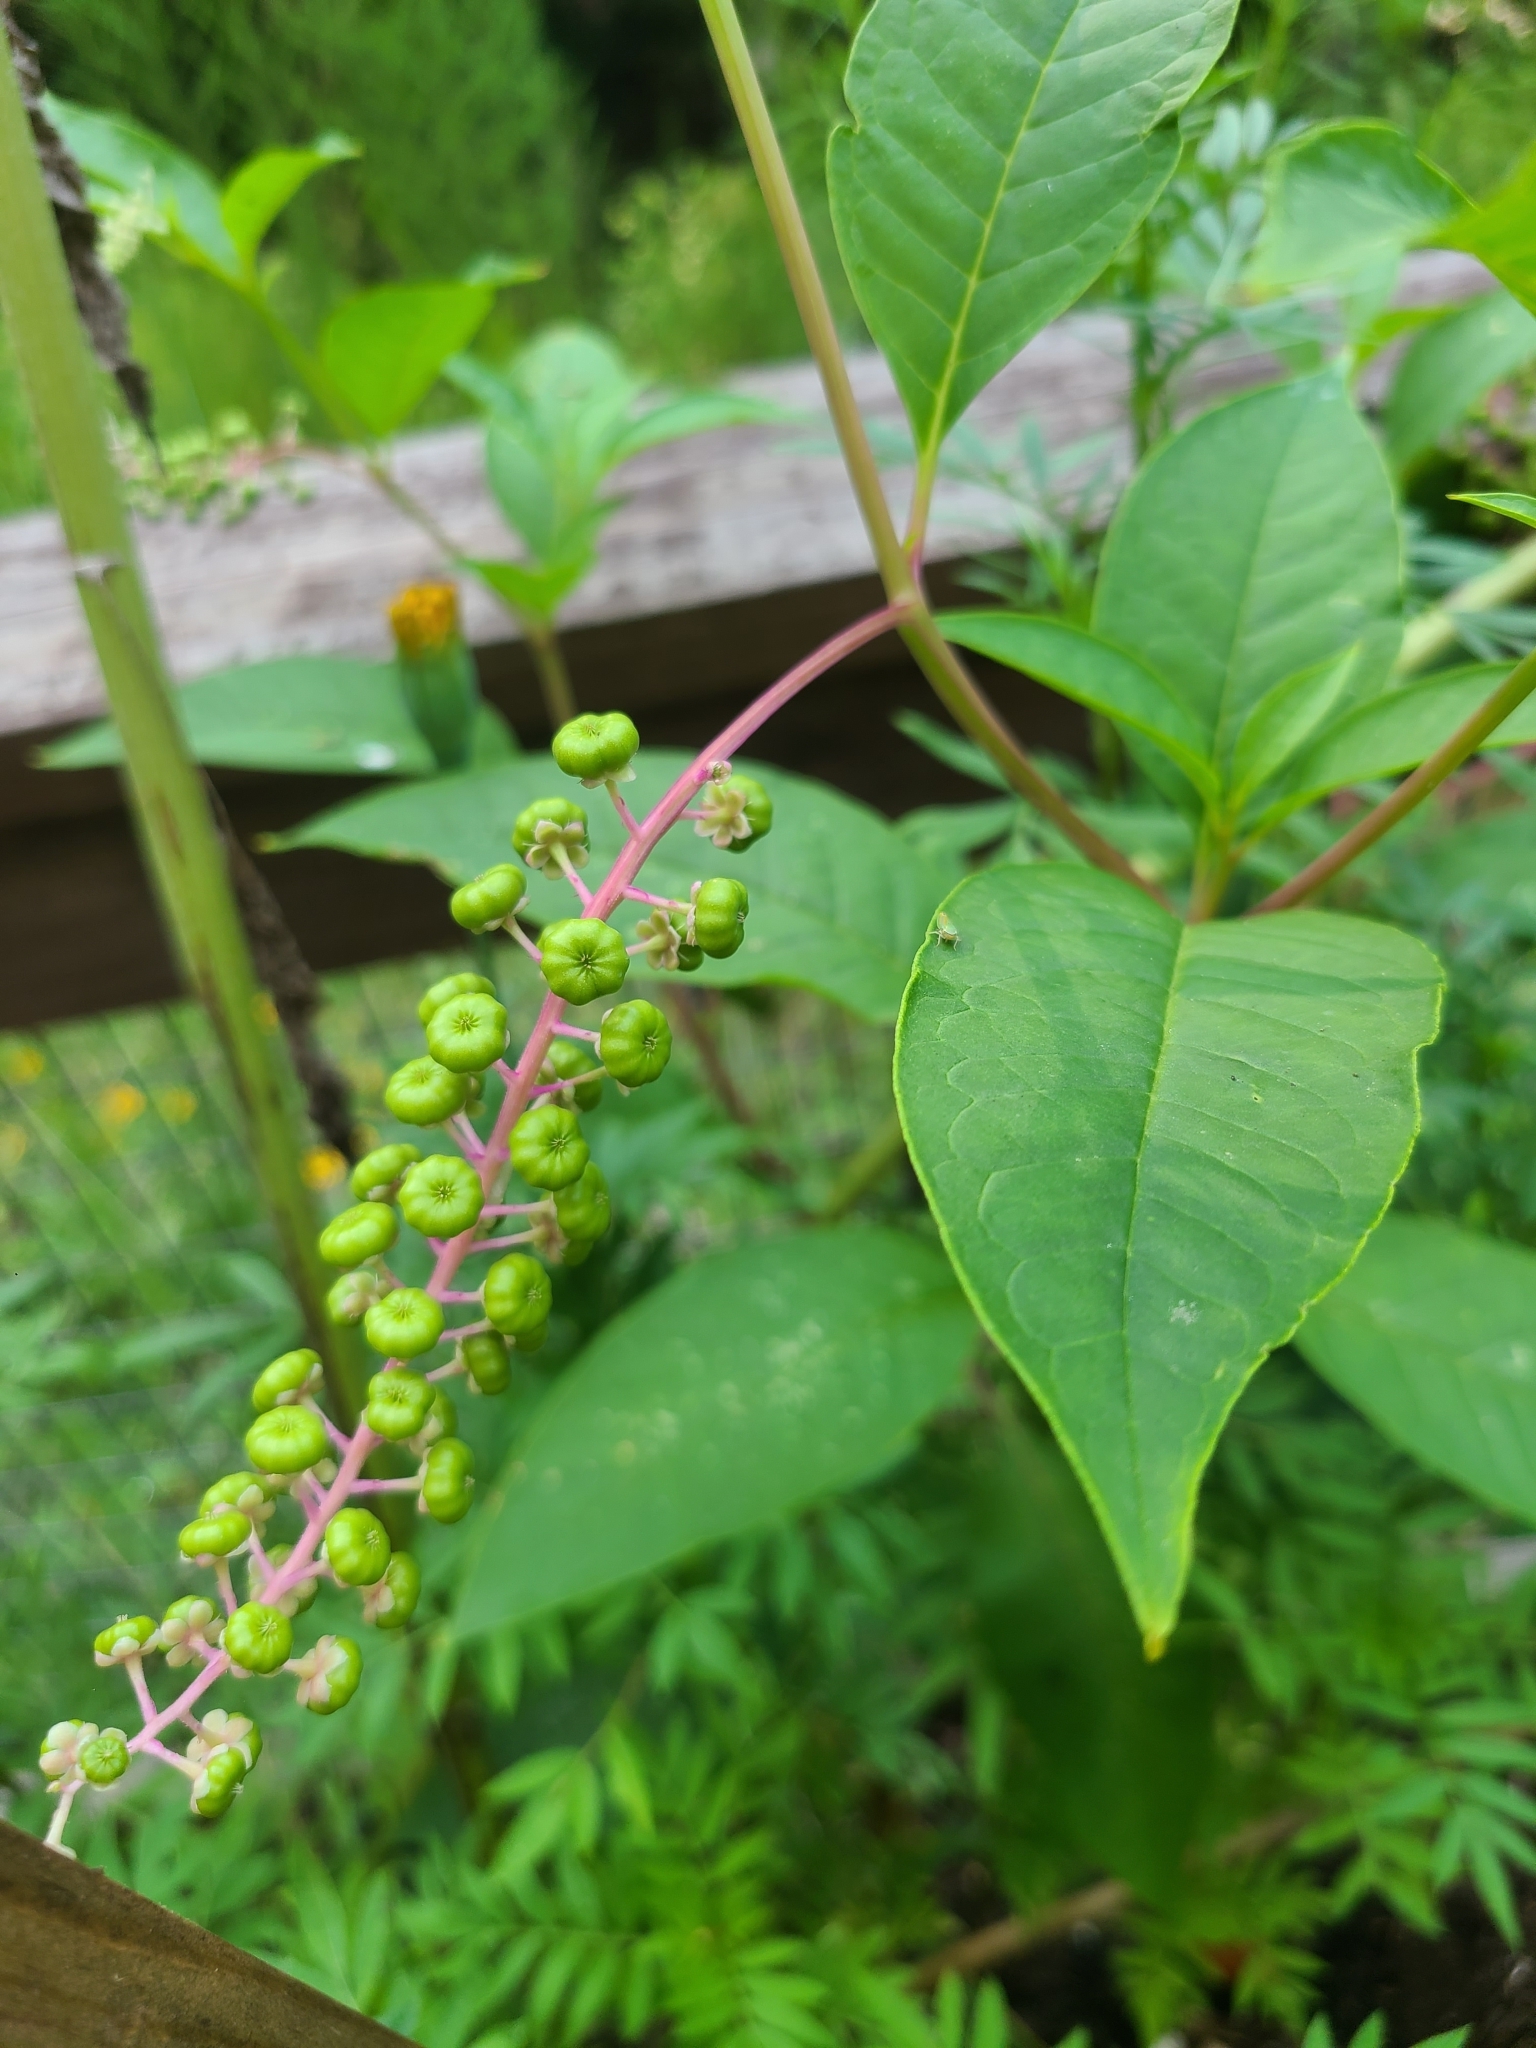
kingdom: Plantae
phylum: Tracheophyta
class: Magnoliopsida
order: Caryophyllales
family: Phytolaccaceae
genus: Phytolacca
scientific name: Phytolacca americana
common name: American pokeweed
